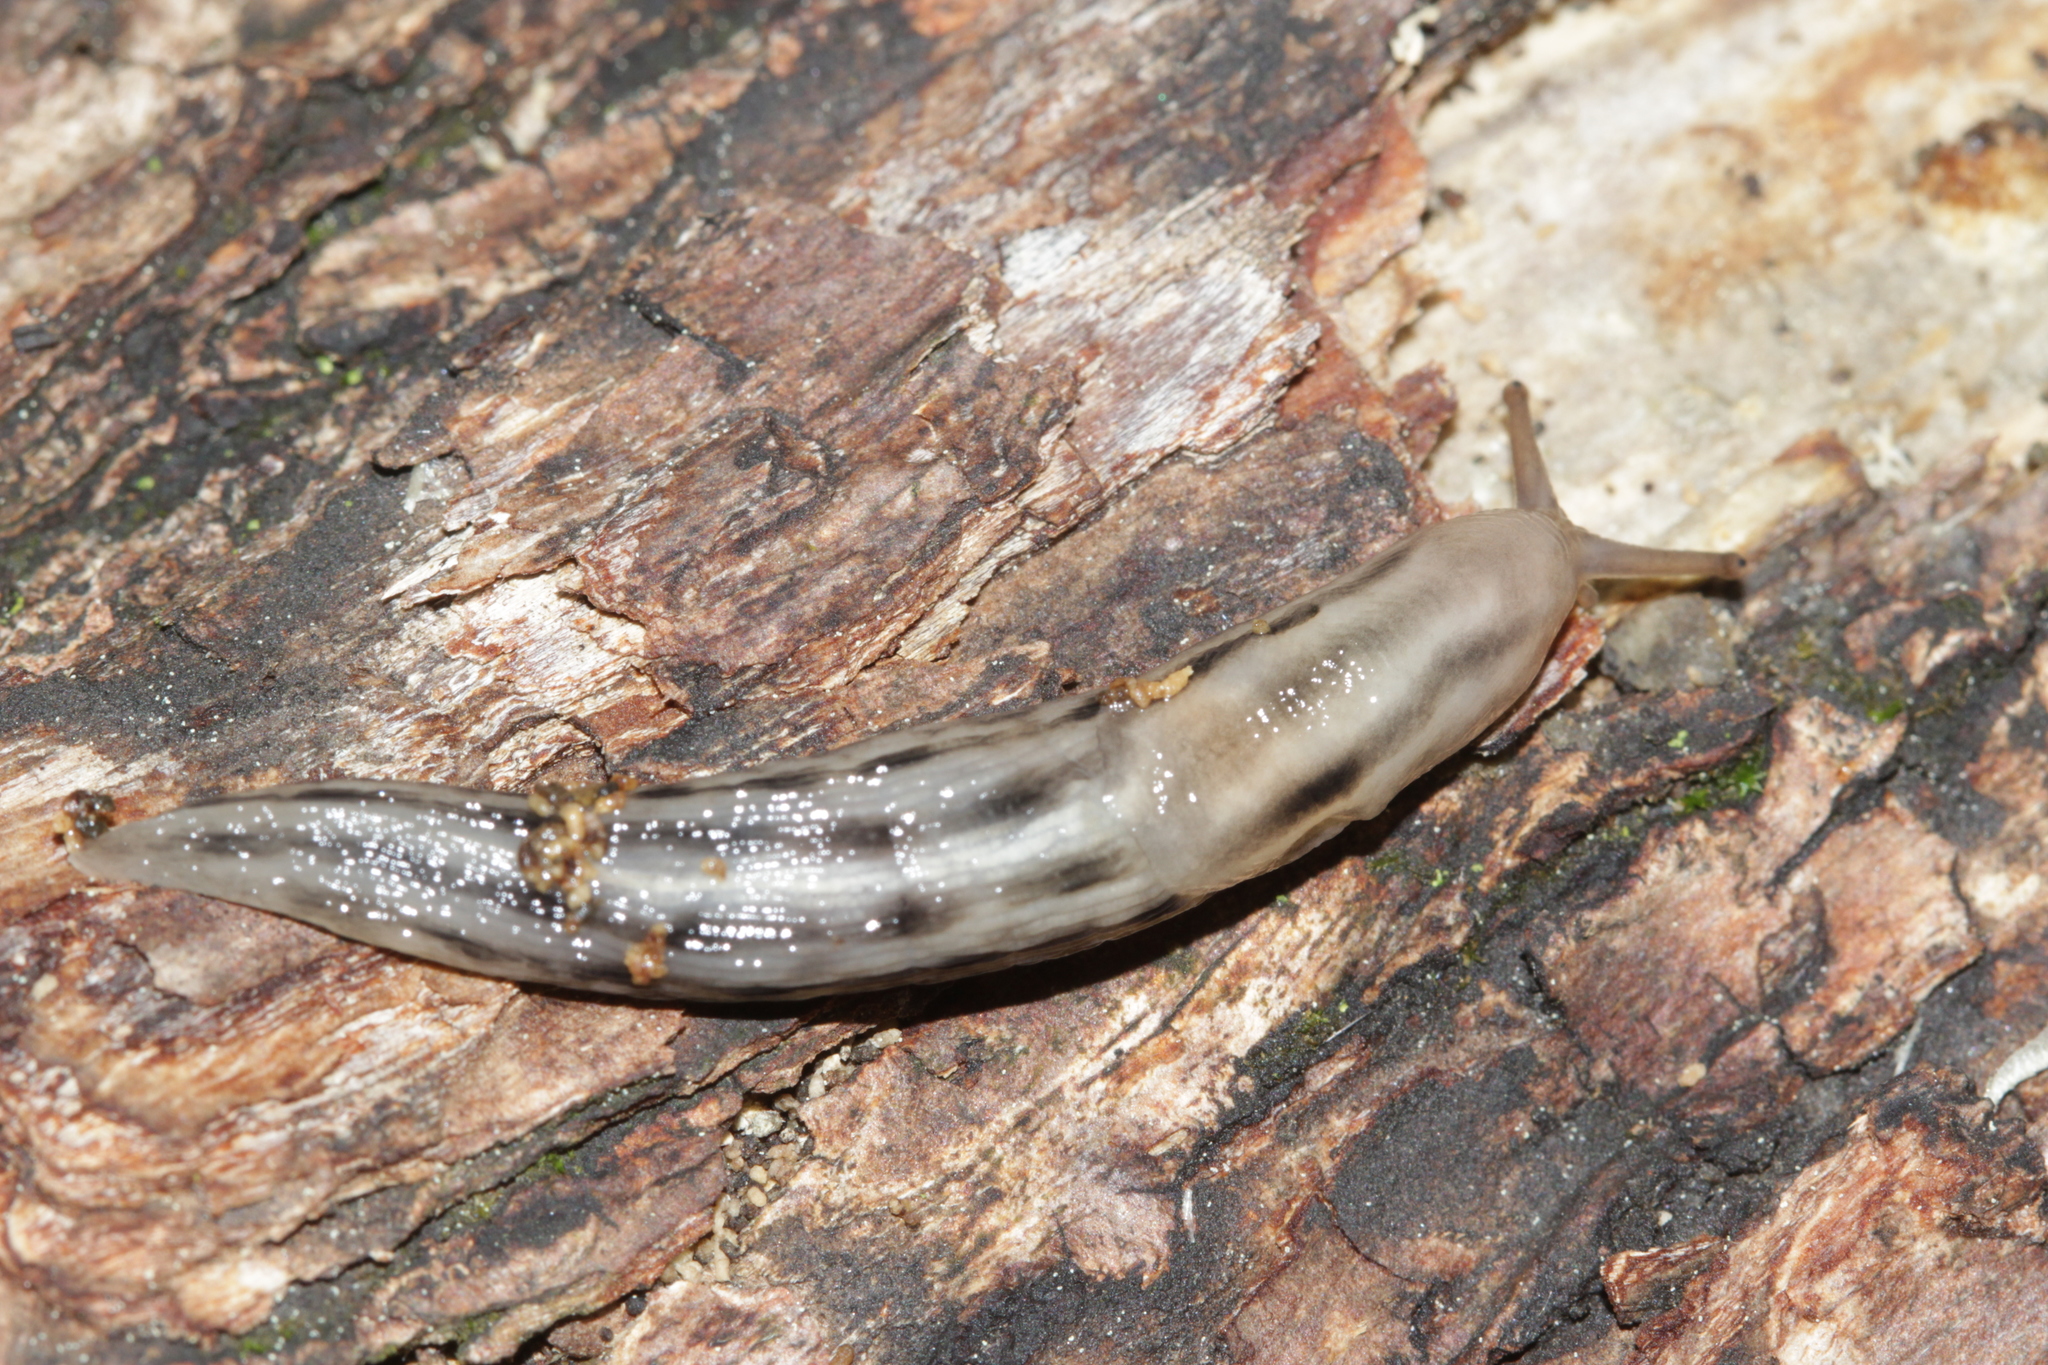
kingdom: Animalia
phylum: Mollusca
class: Gastropoda
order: Stylommatophora
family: Limacidae
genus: Lehmannia
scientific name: Lehmannia marginata
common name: Tree slug
